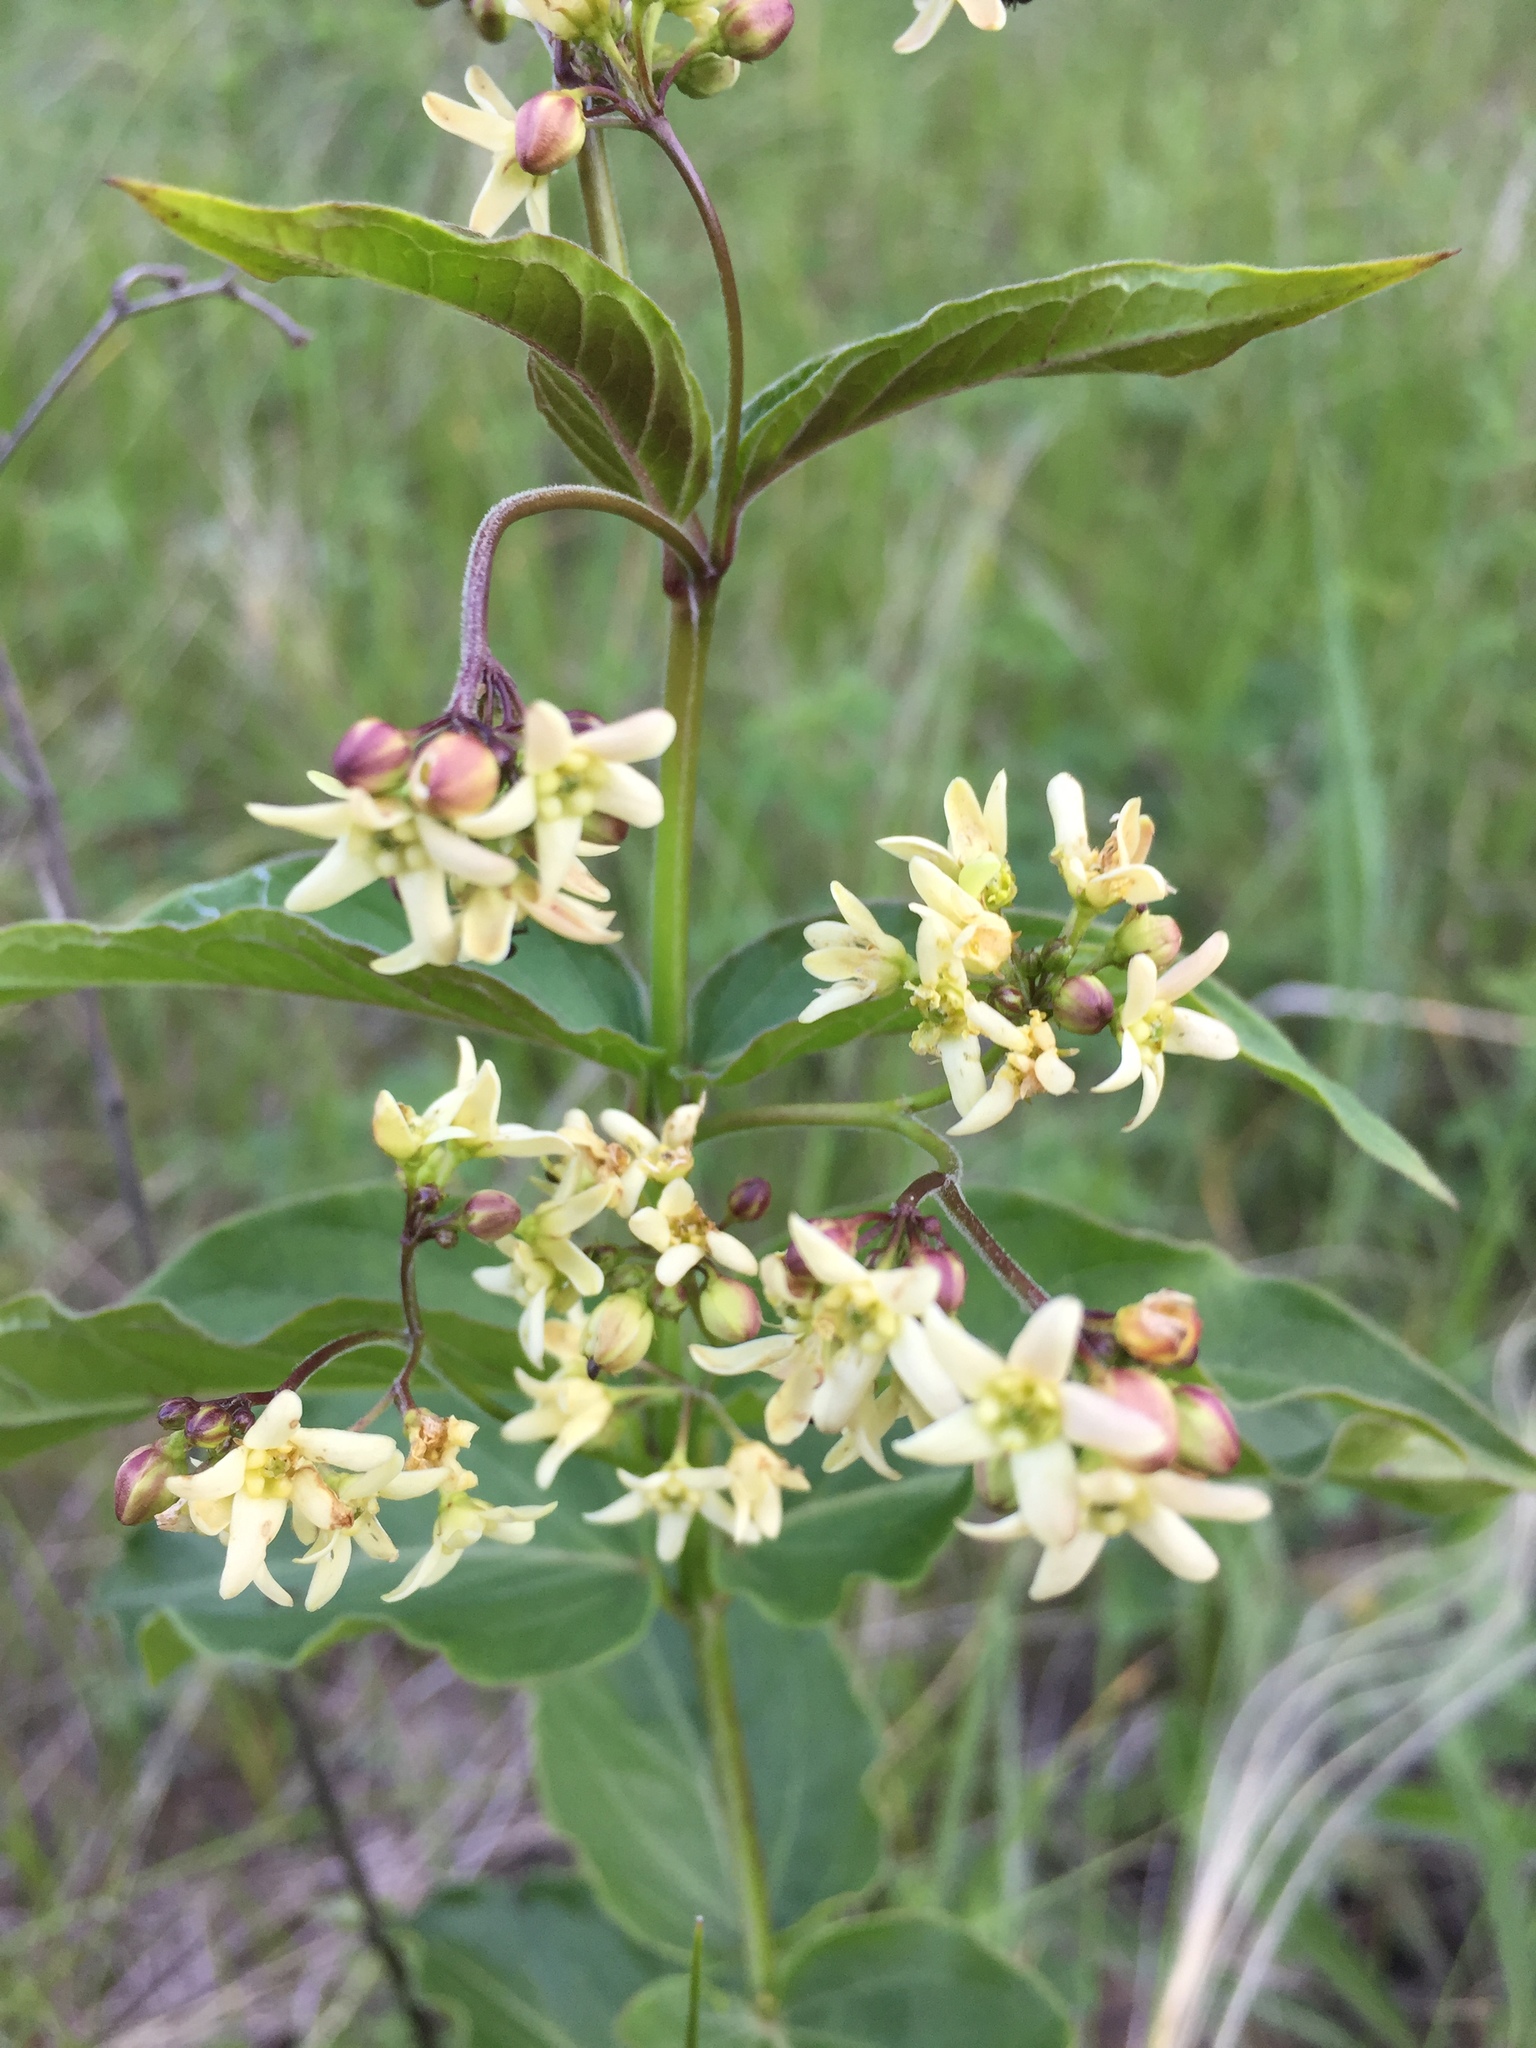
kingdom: Plantae
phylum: Tracheophyta
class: Magnoliopsida
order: Gentianales
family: Apocynaceae
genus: Vincetoxicum
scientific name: Vincetoxicum hirundinaria
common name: White swallowwort
